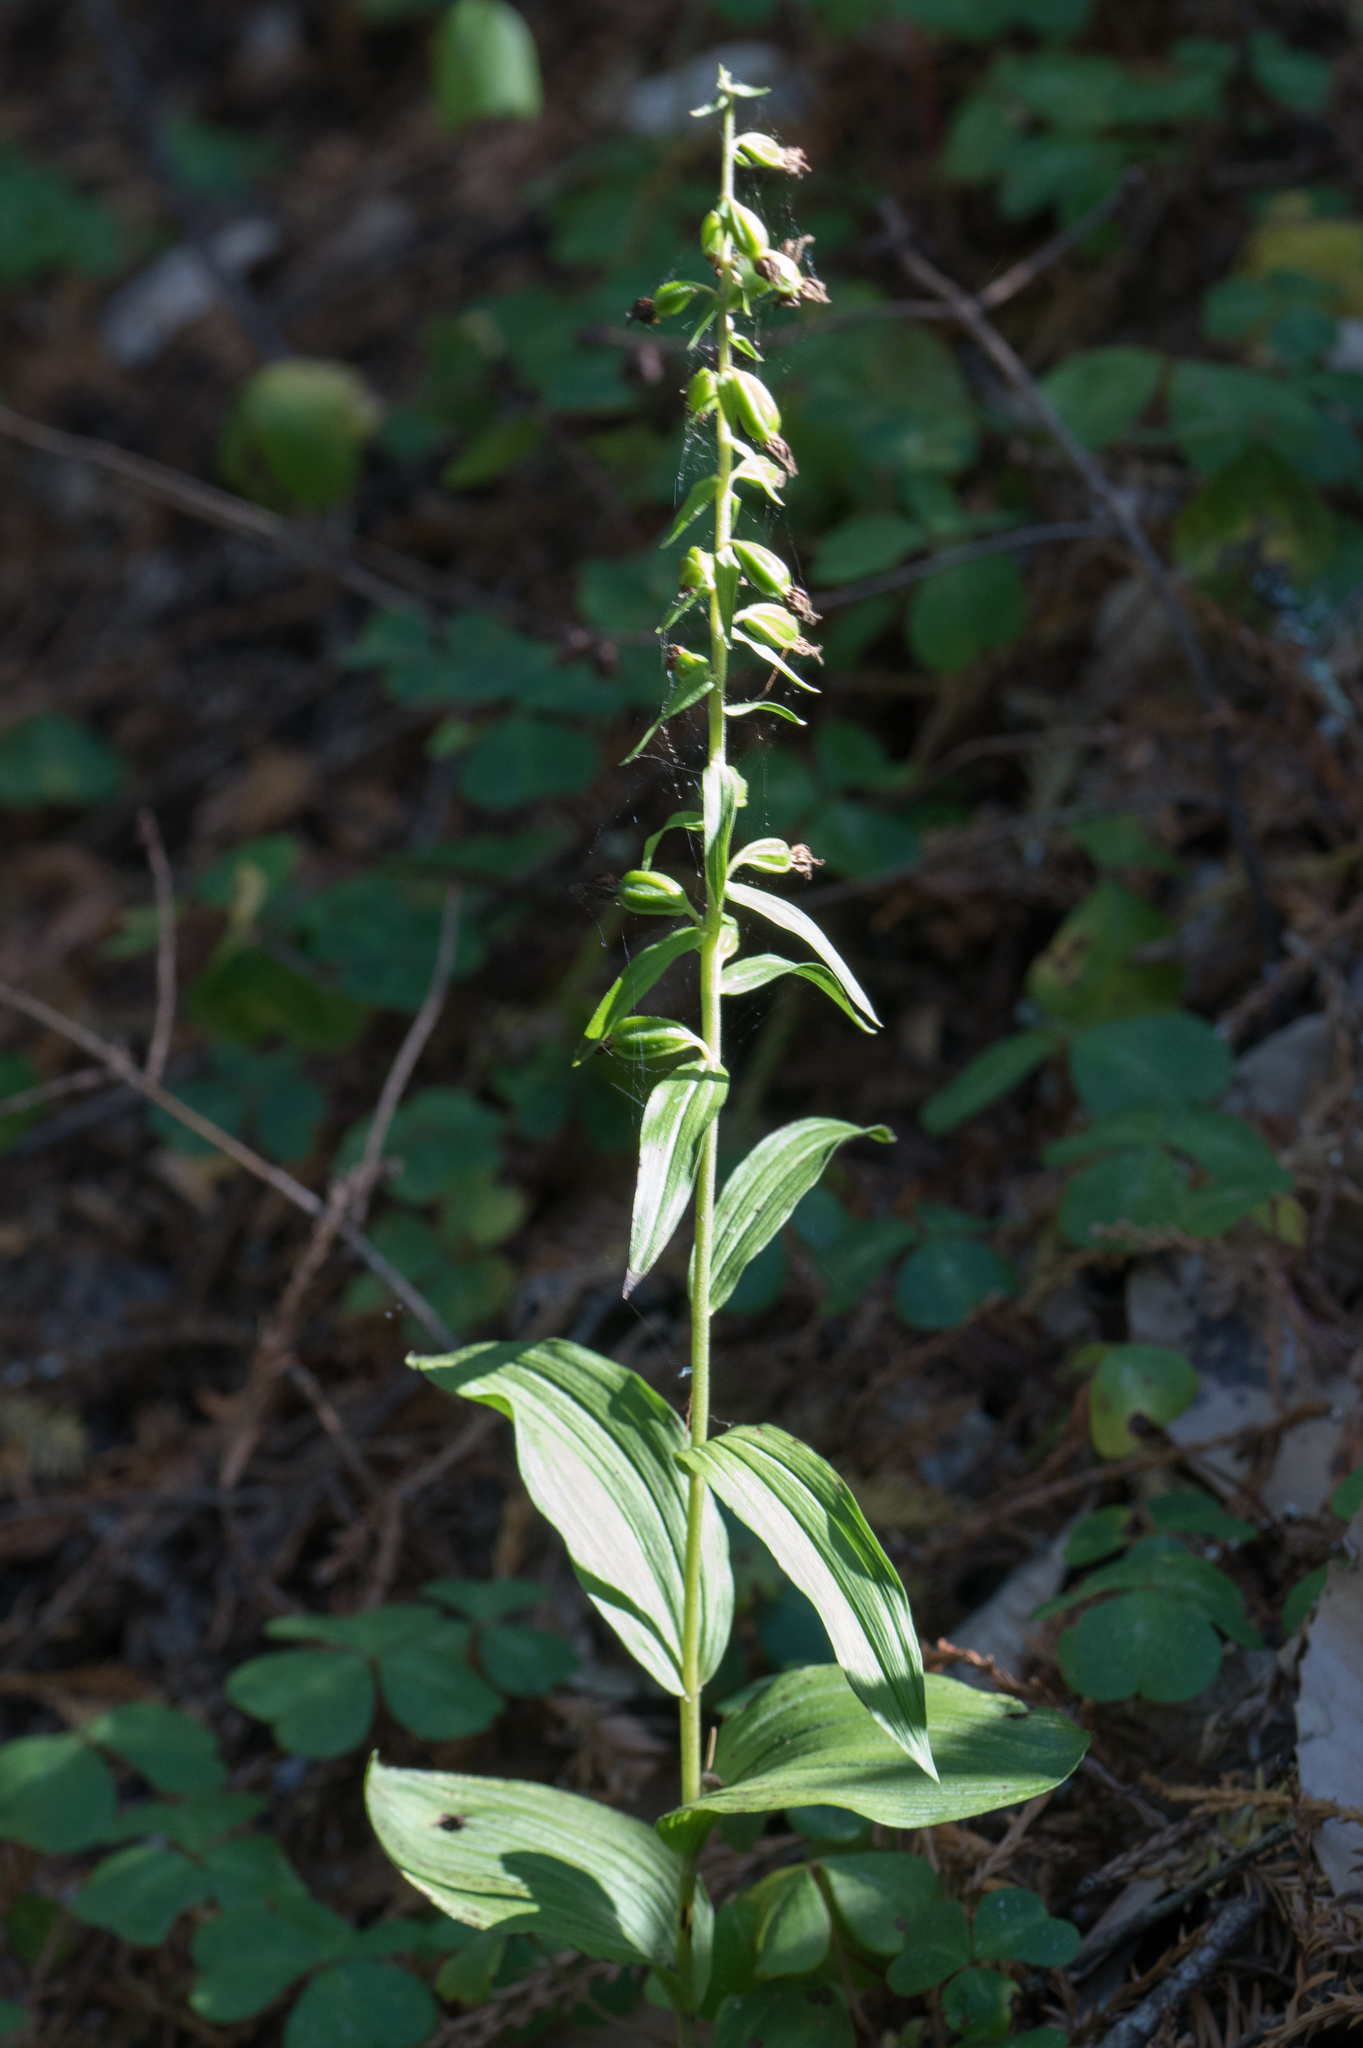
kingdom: Plantae
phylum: Tracheophyta
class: Liliopsida
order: Asparagales
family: Orchidaceae
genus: Epipactis
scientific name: Epipactis helleborine
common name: Broad-leaved helleborine
